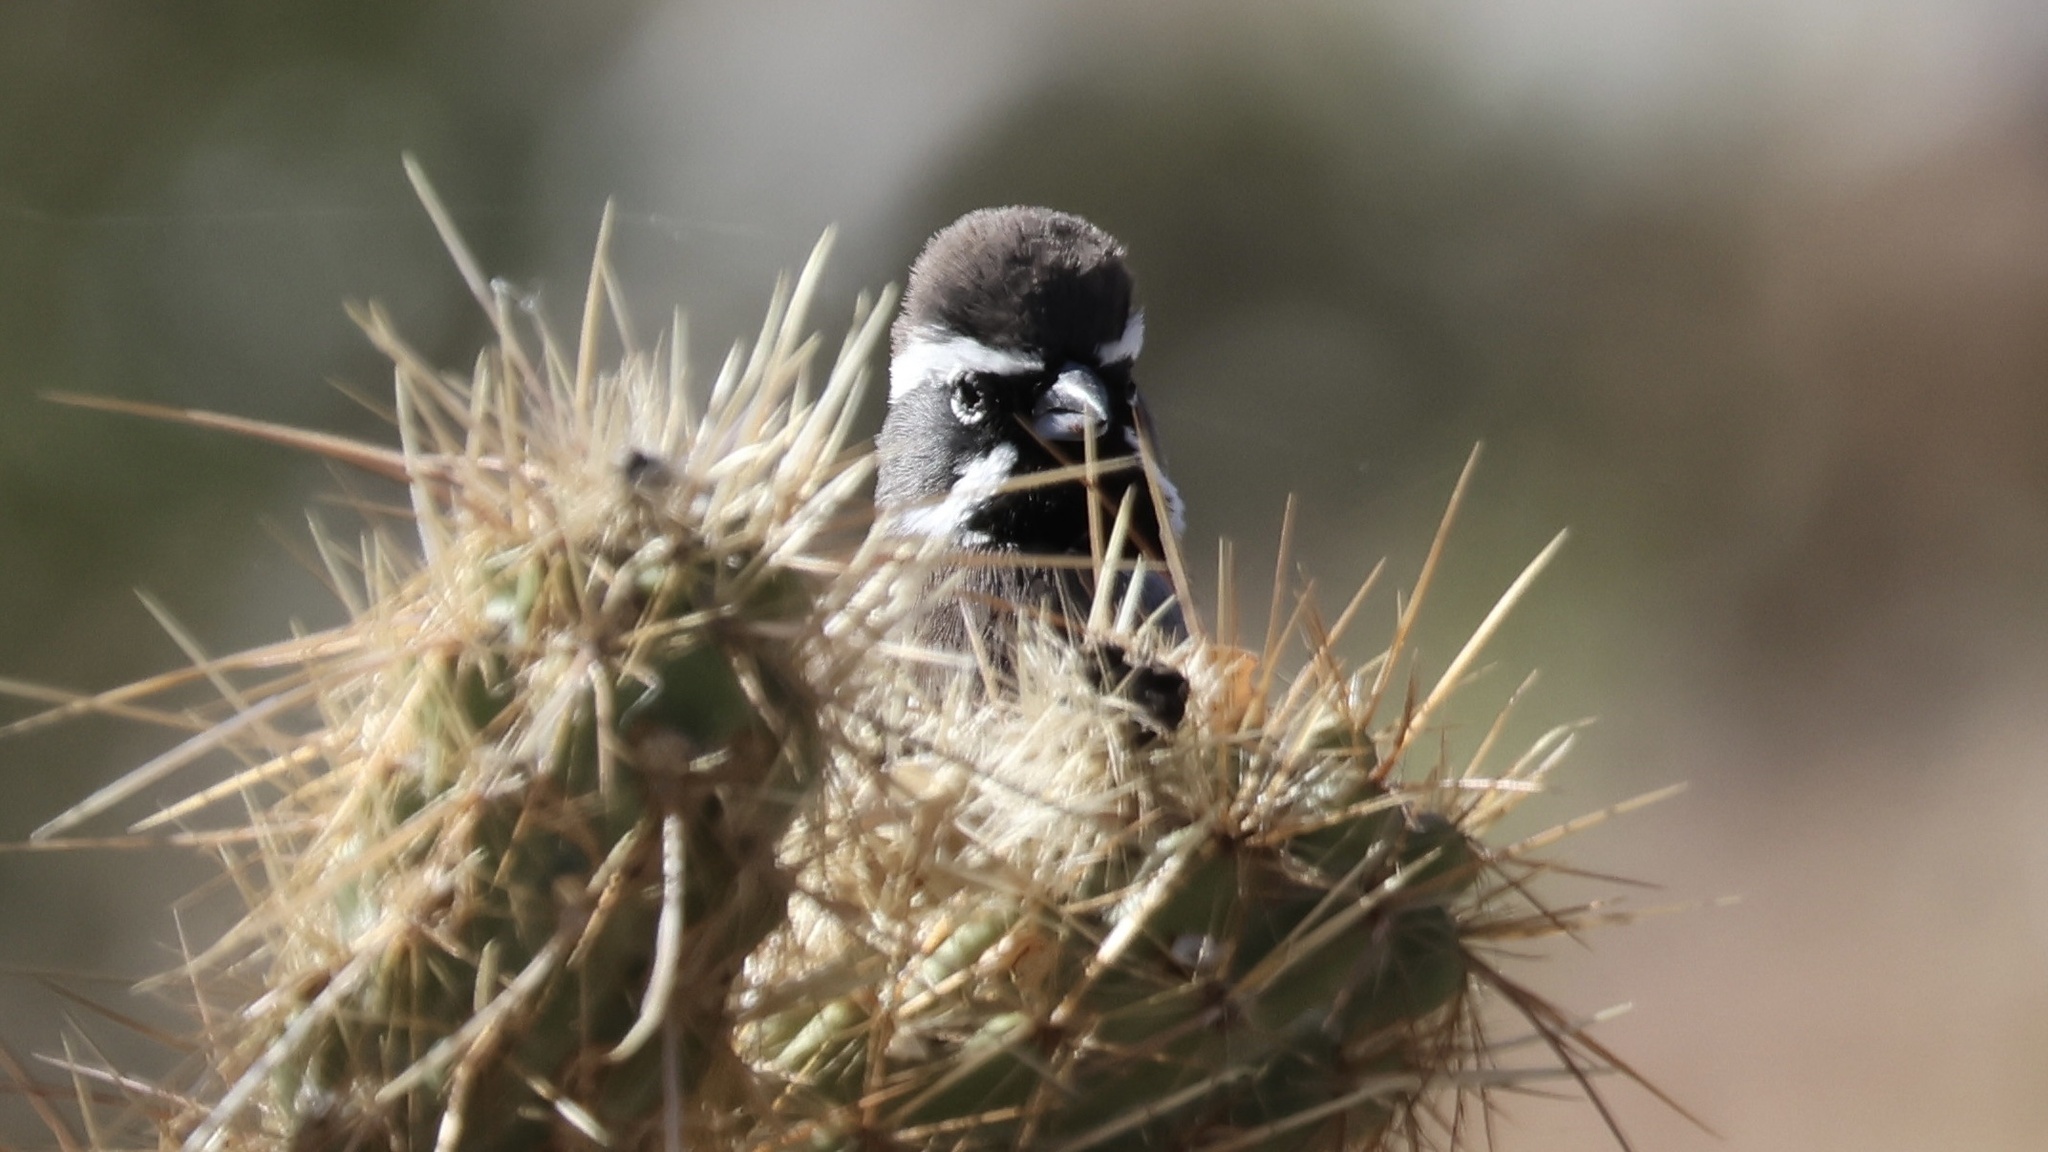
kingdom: Animalia
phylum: Chordata
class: Aves
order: Passeriformes
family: Passerellidae
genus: Amphispiza
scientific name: Amphispiza bilineata
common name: Black-throated sparrow
